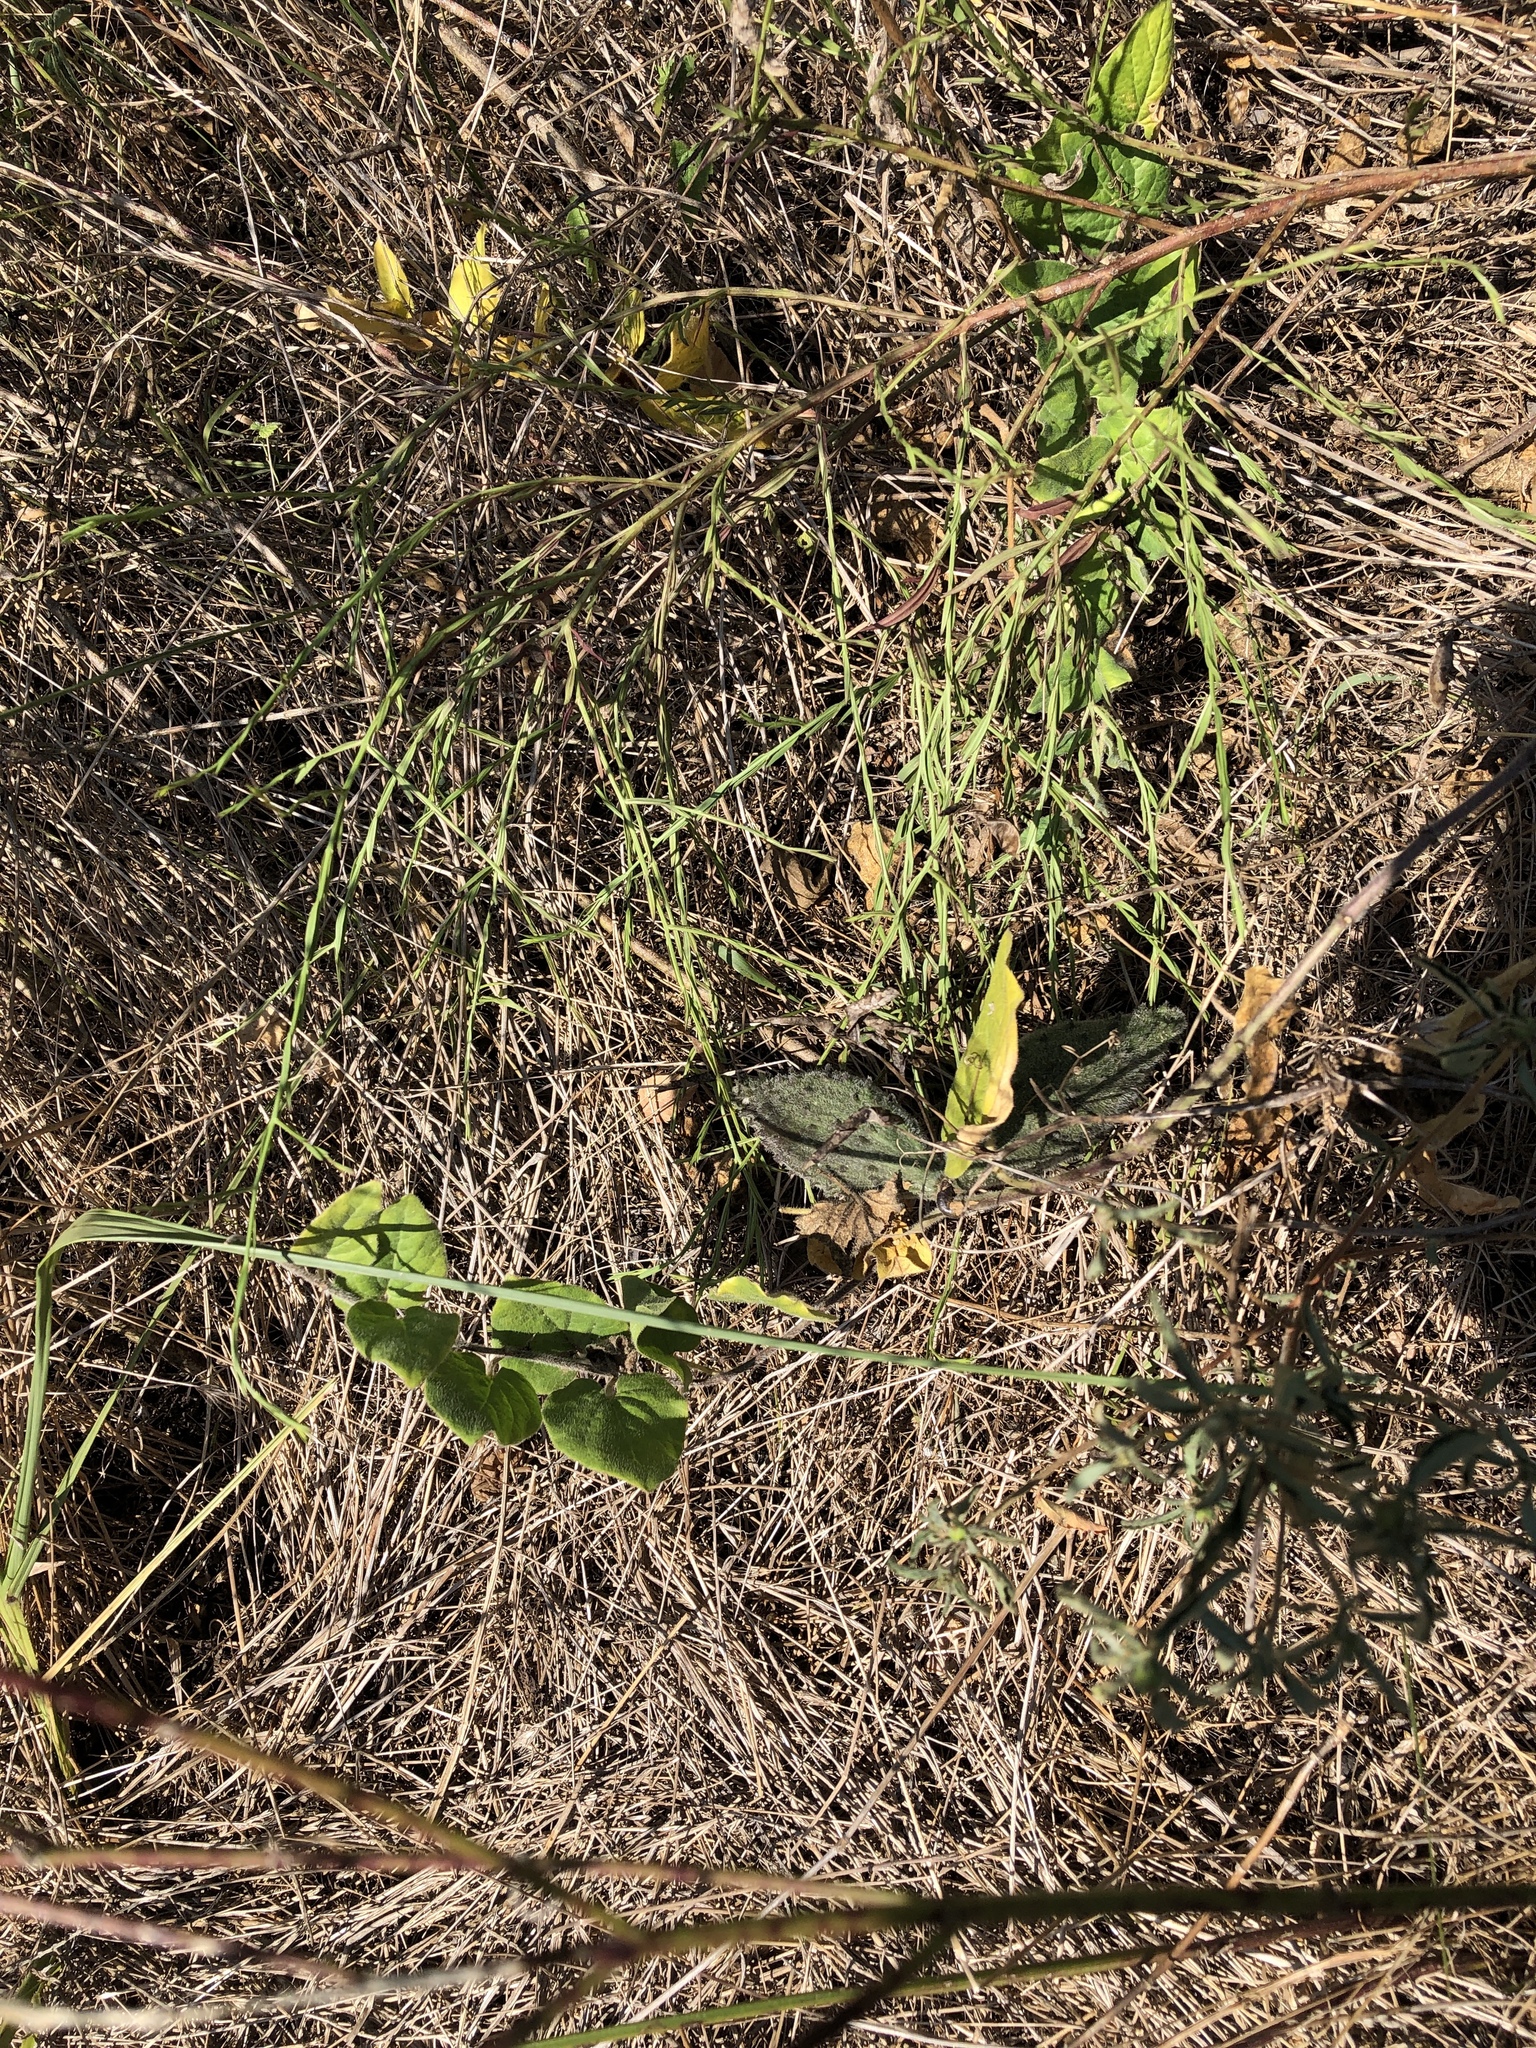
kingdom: Plantae
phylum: Tracheophyta
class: Magnoliopsida
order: Gentianales
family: Apocynaceae
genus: Chthamalia
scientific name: Chthamalia biflora
